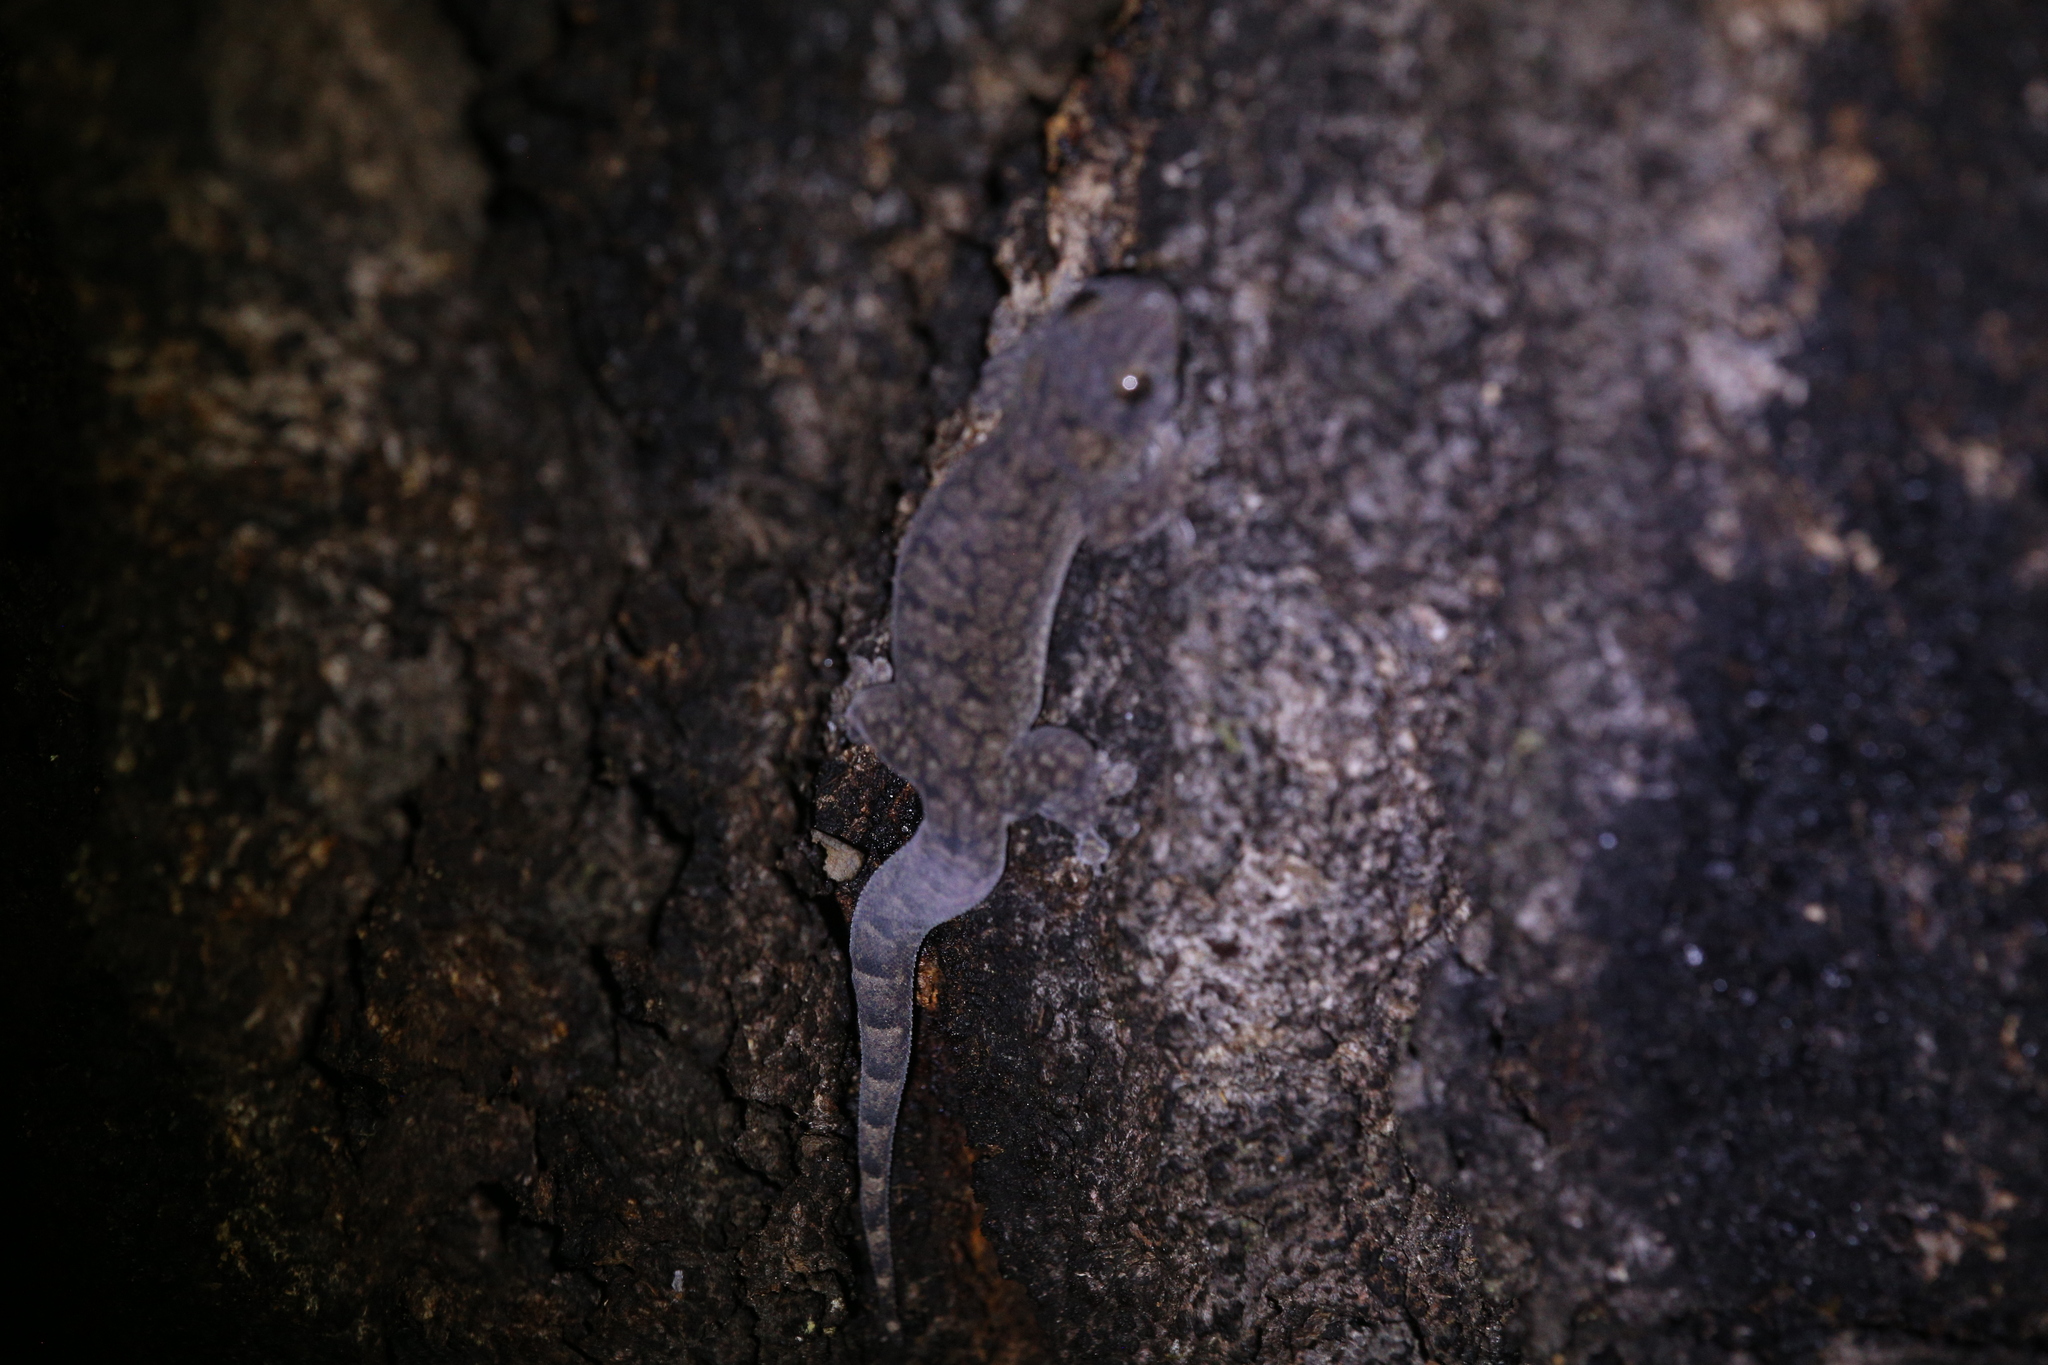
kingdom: Animalia
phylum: Chordata
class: Squamata
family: Gekkonidae
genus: Gehyra
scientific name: Gehyra dubia
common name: Dubious dtella
